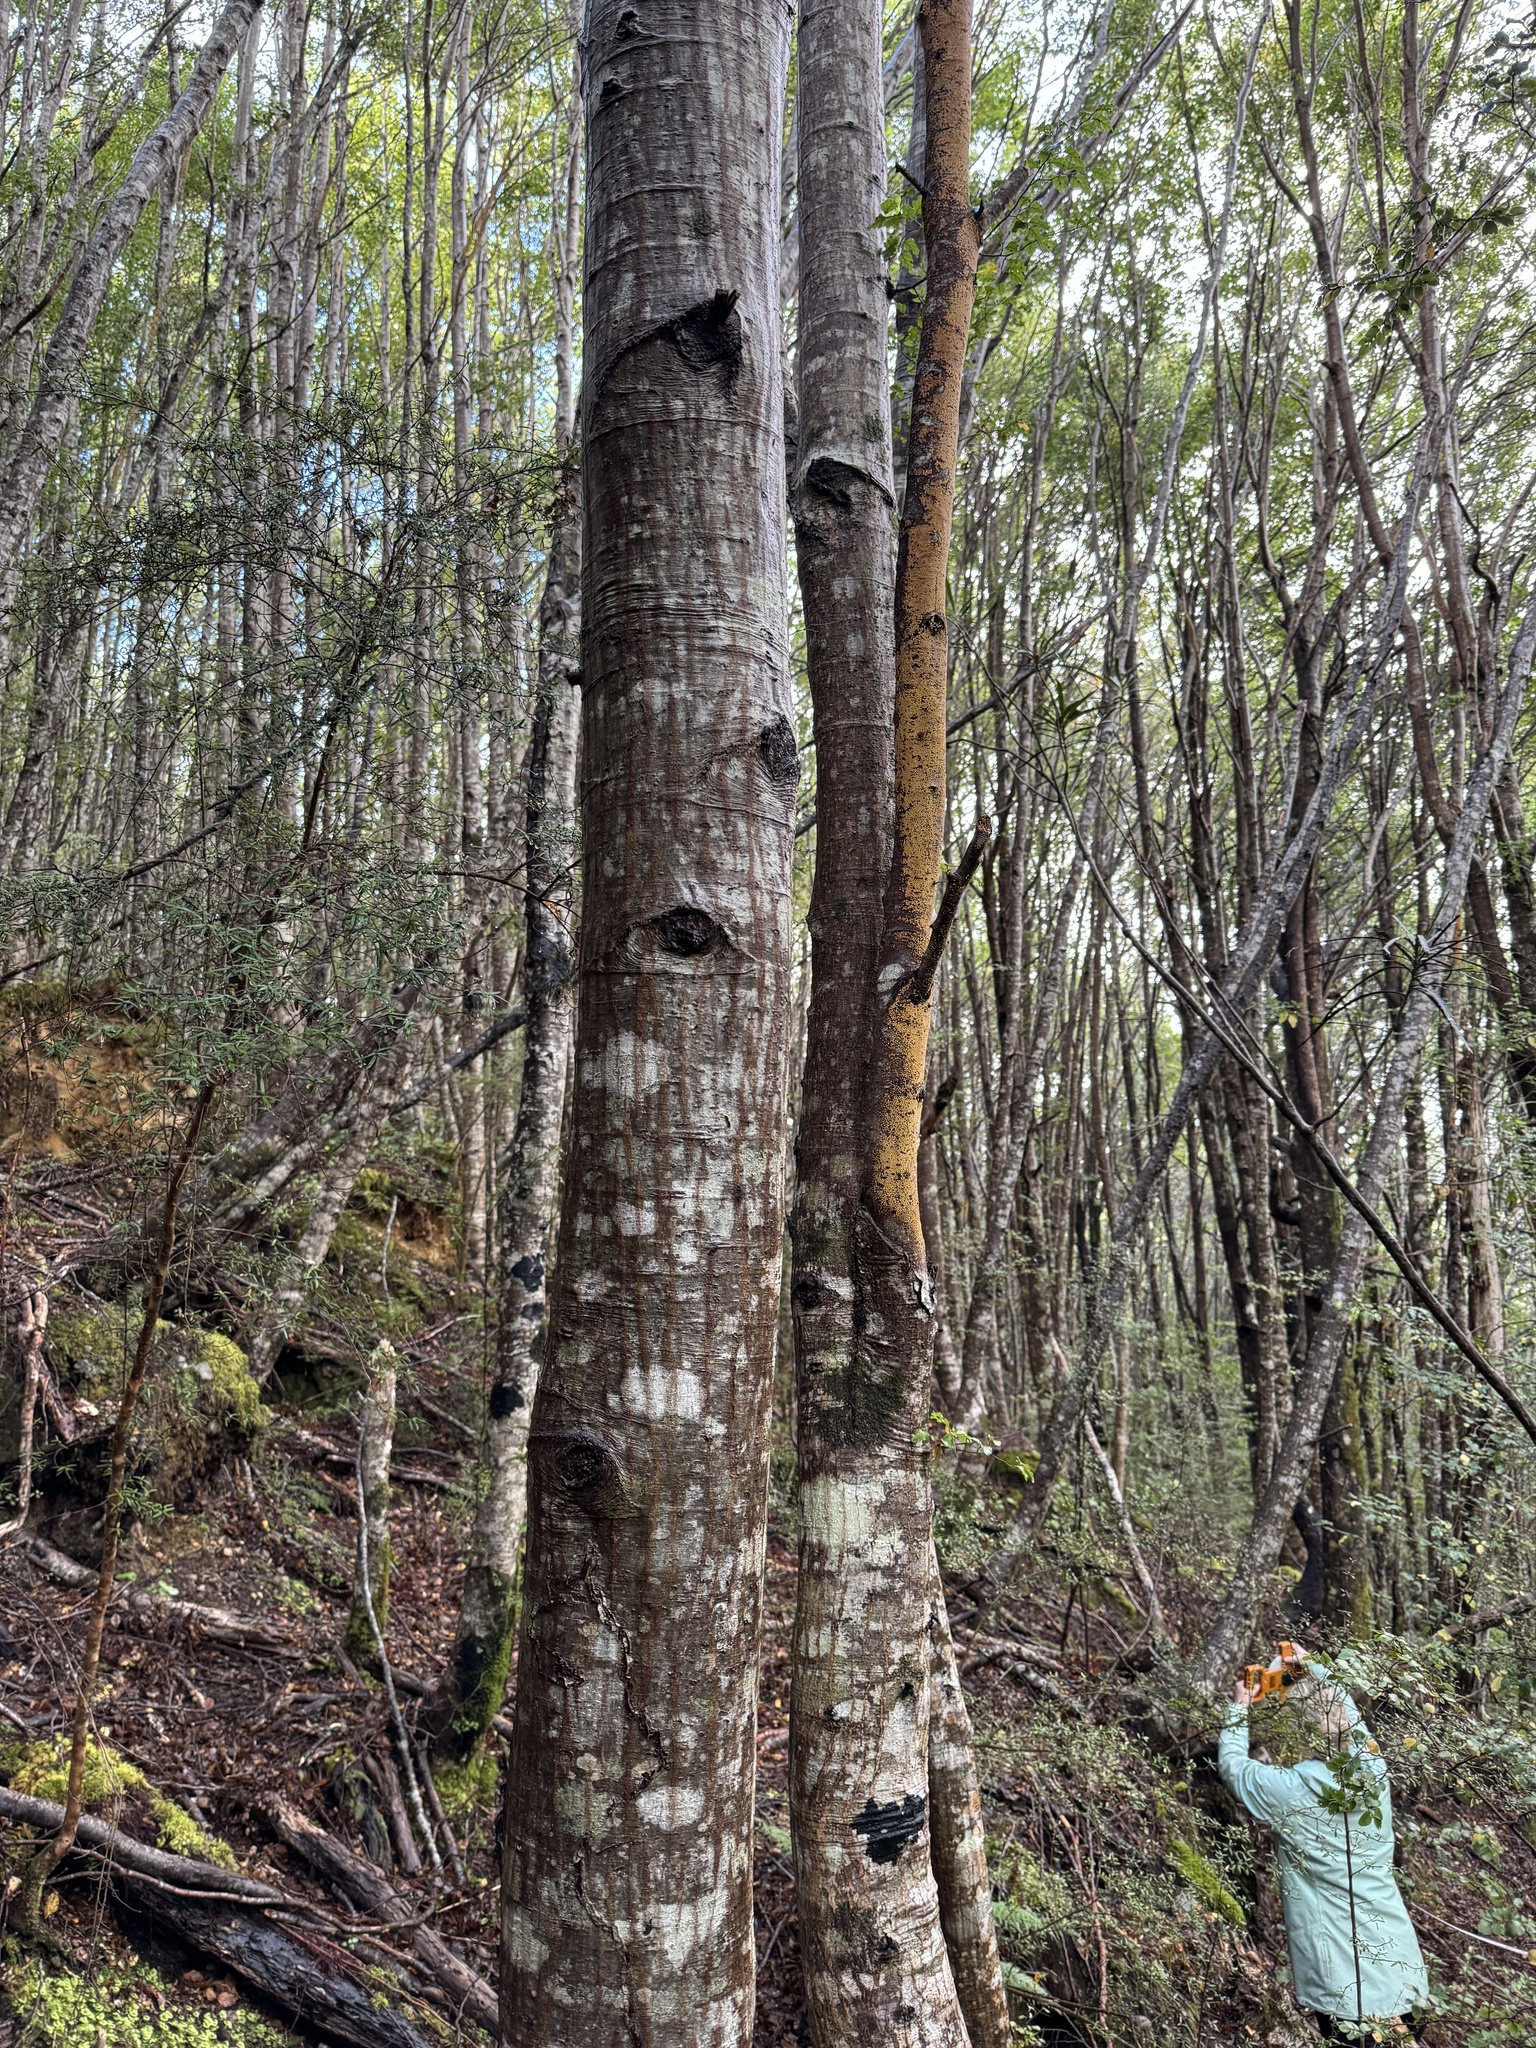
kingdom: Fungi
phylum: Basidiomycota
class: Agaricomycetes
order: Russulales
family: Stereaceae
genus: Aleurodiscus
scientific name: Aleurodiscus berggrenii
